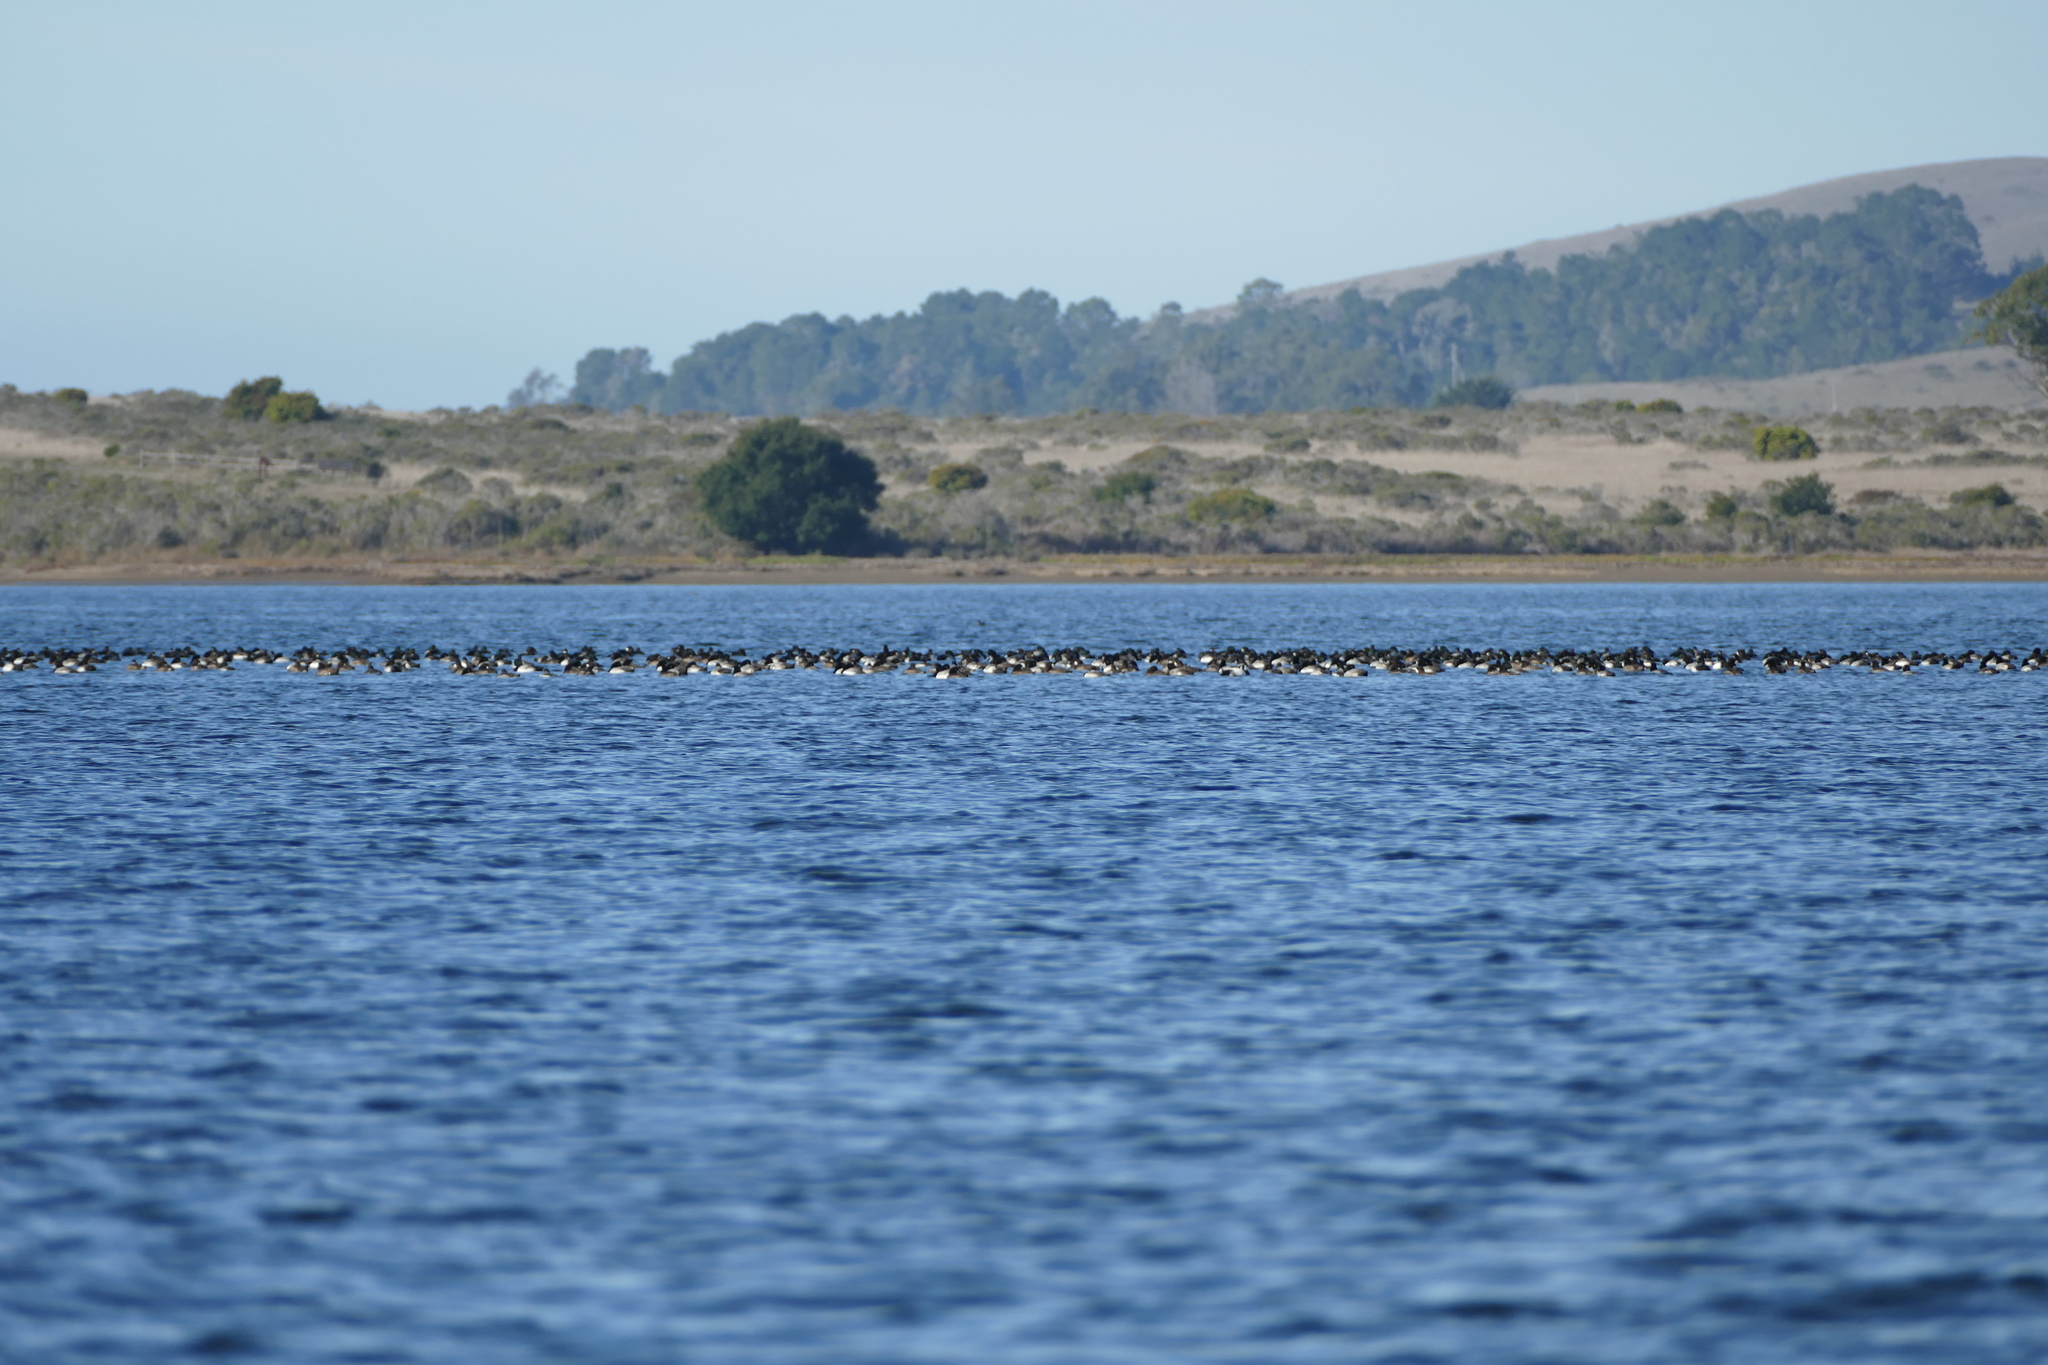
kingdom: Animalia
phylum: Chordata
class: Aves
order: Anseriformes
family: Anatidae
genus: Aythya
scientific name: Aythya
